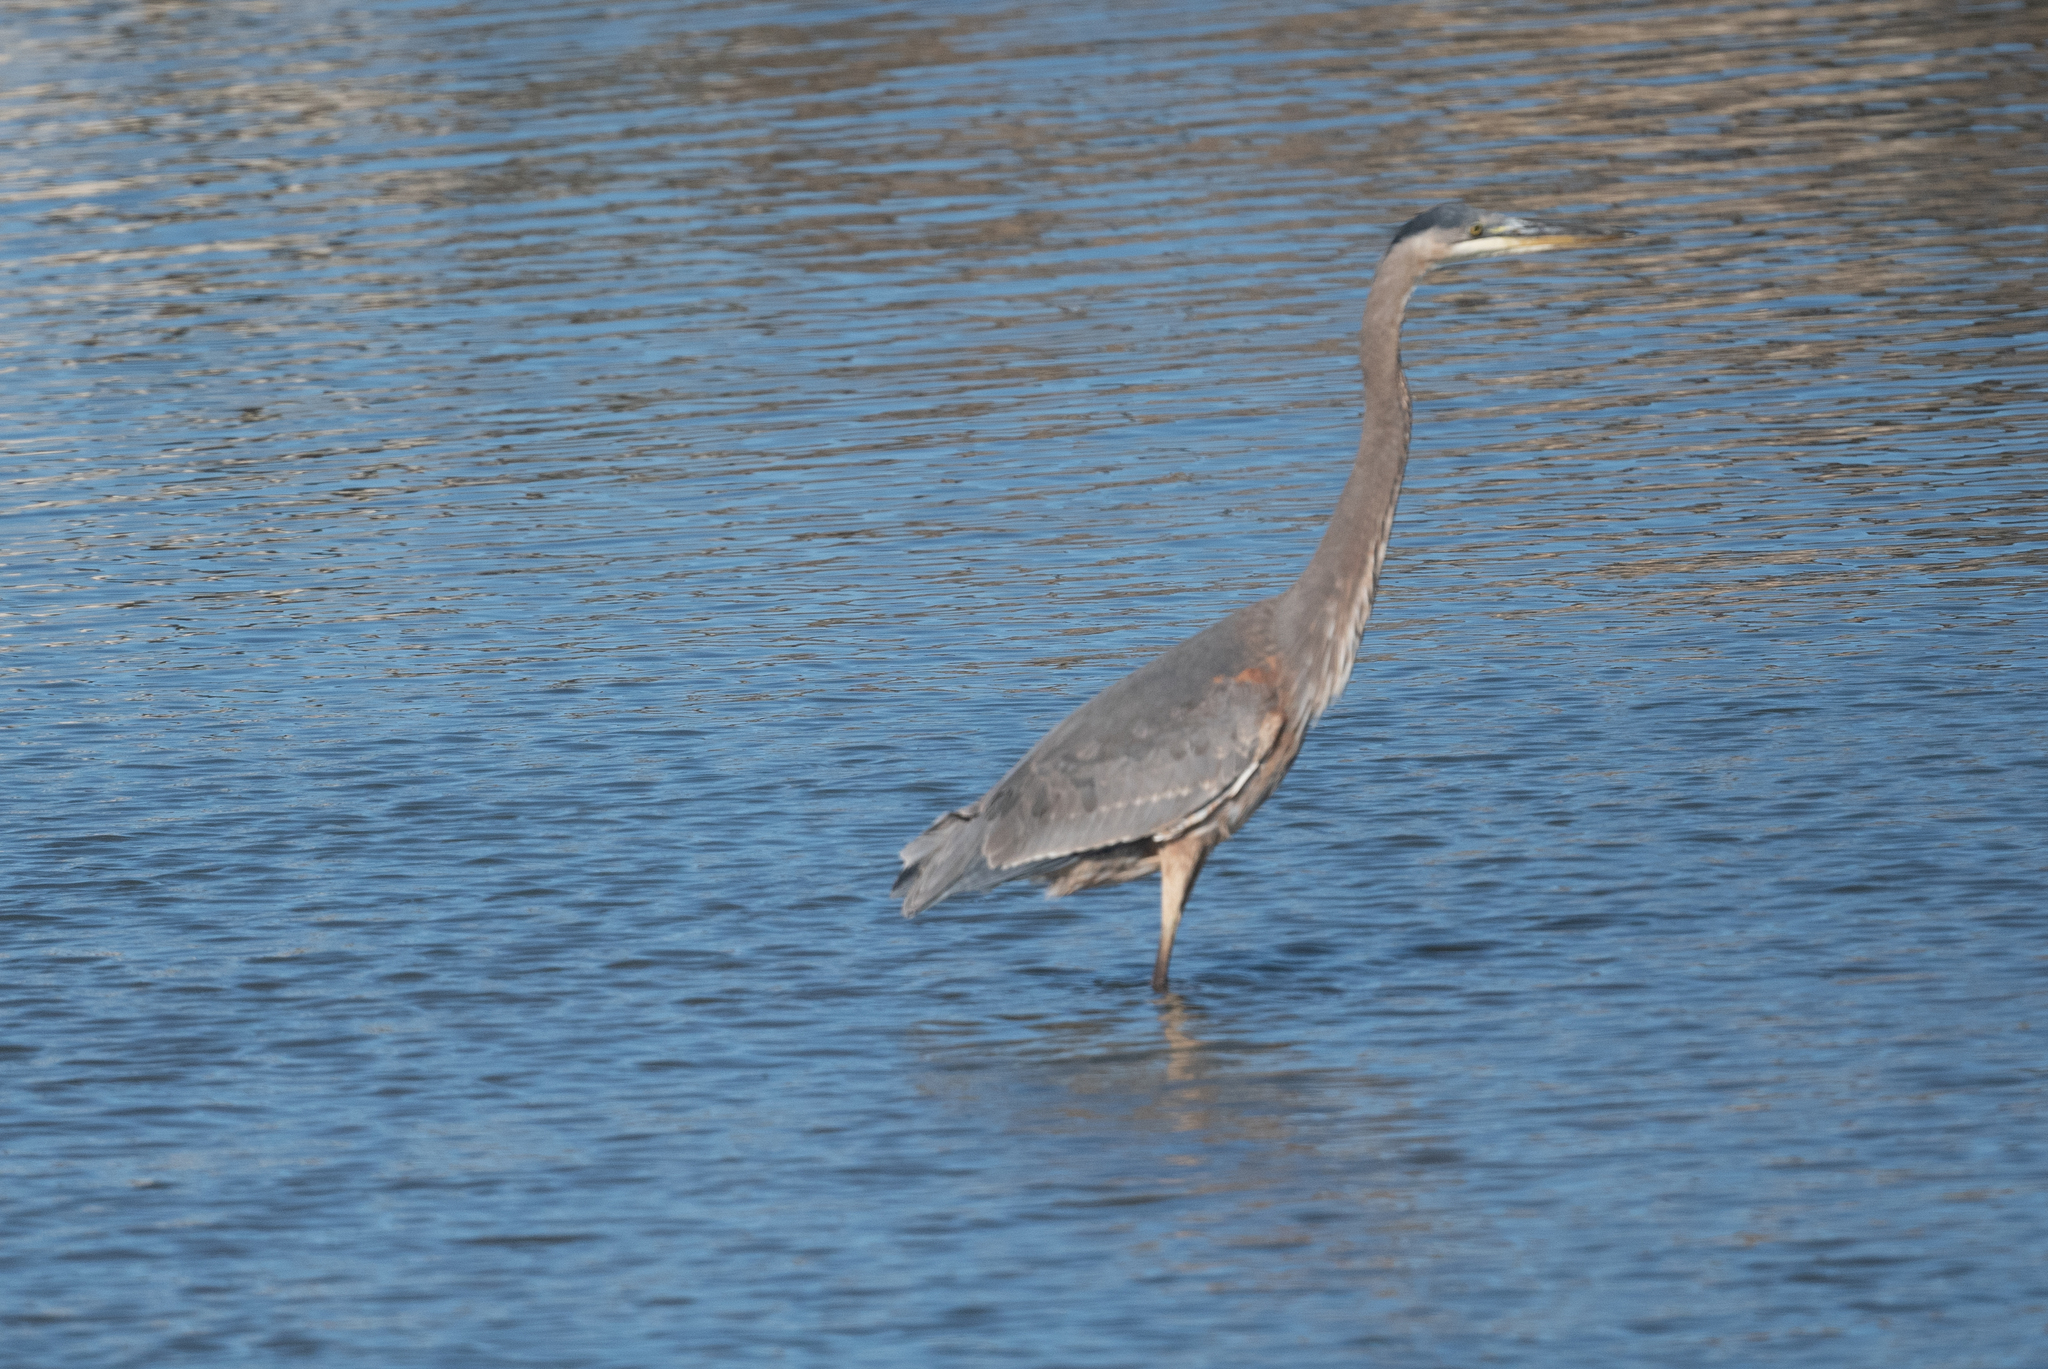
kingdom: Animalia
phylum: Chordata
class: Aves
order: Pelecaniformes
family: Ardeidae
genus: Ardea
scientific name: Ardea herodias
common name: Great blue heron
